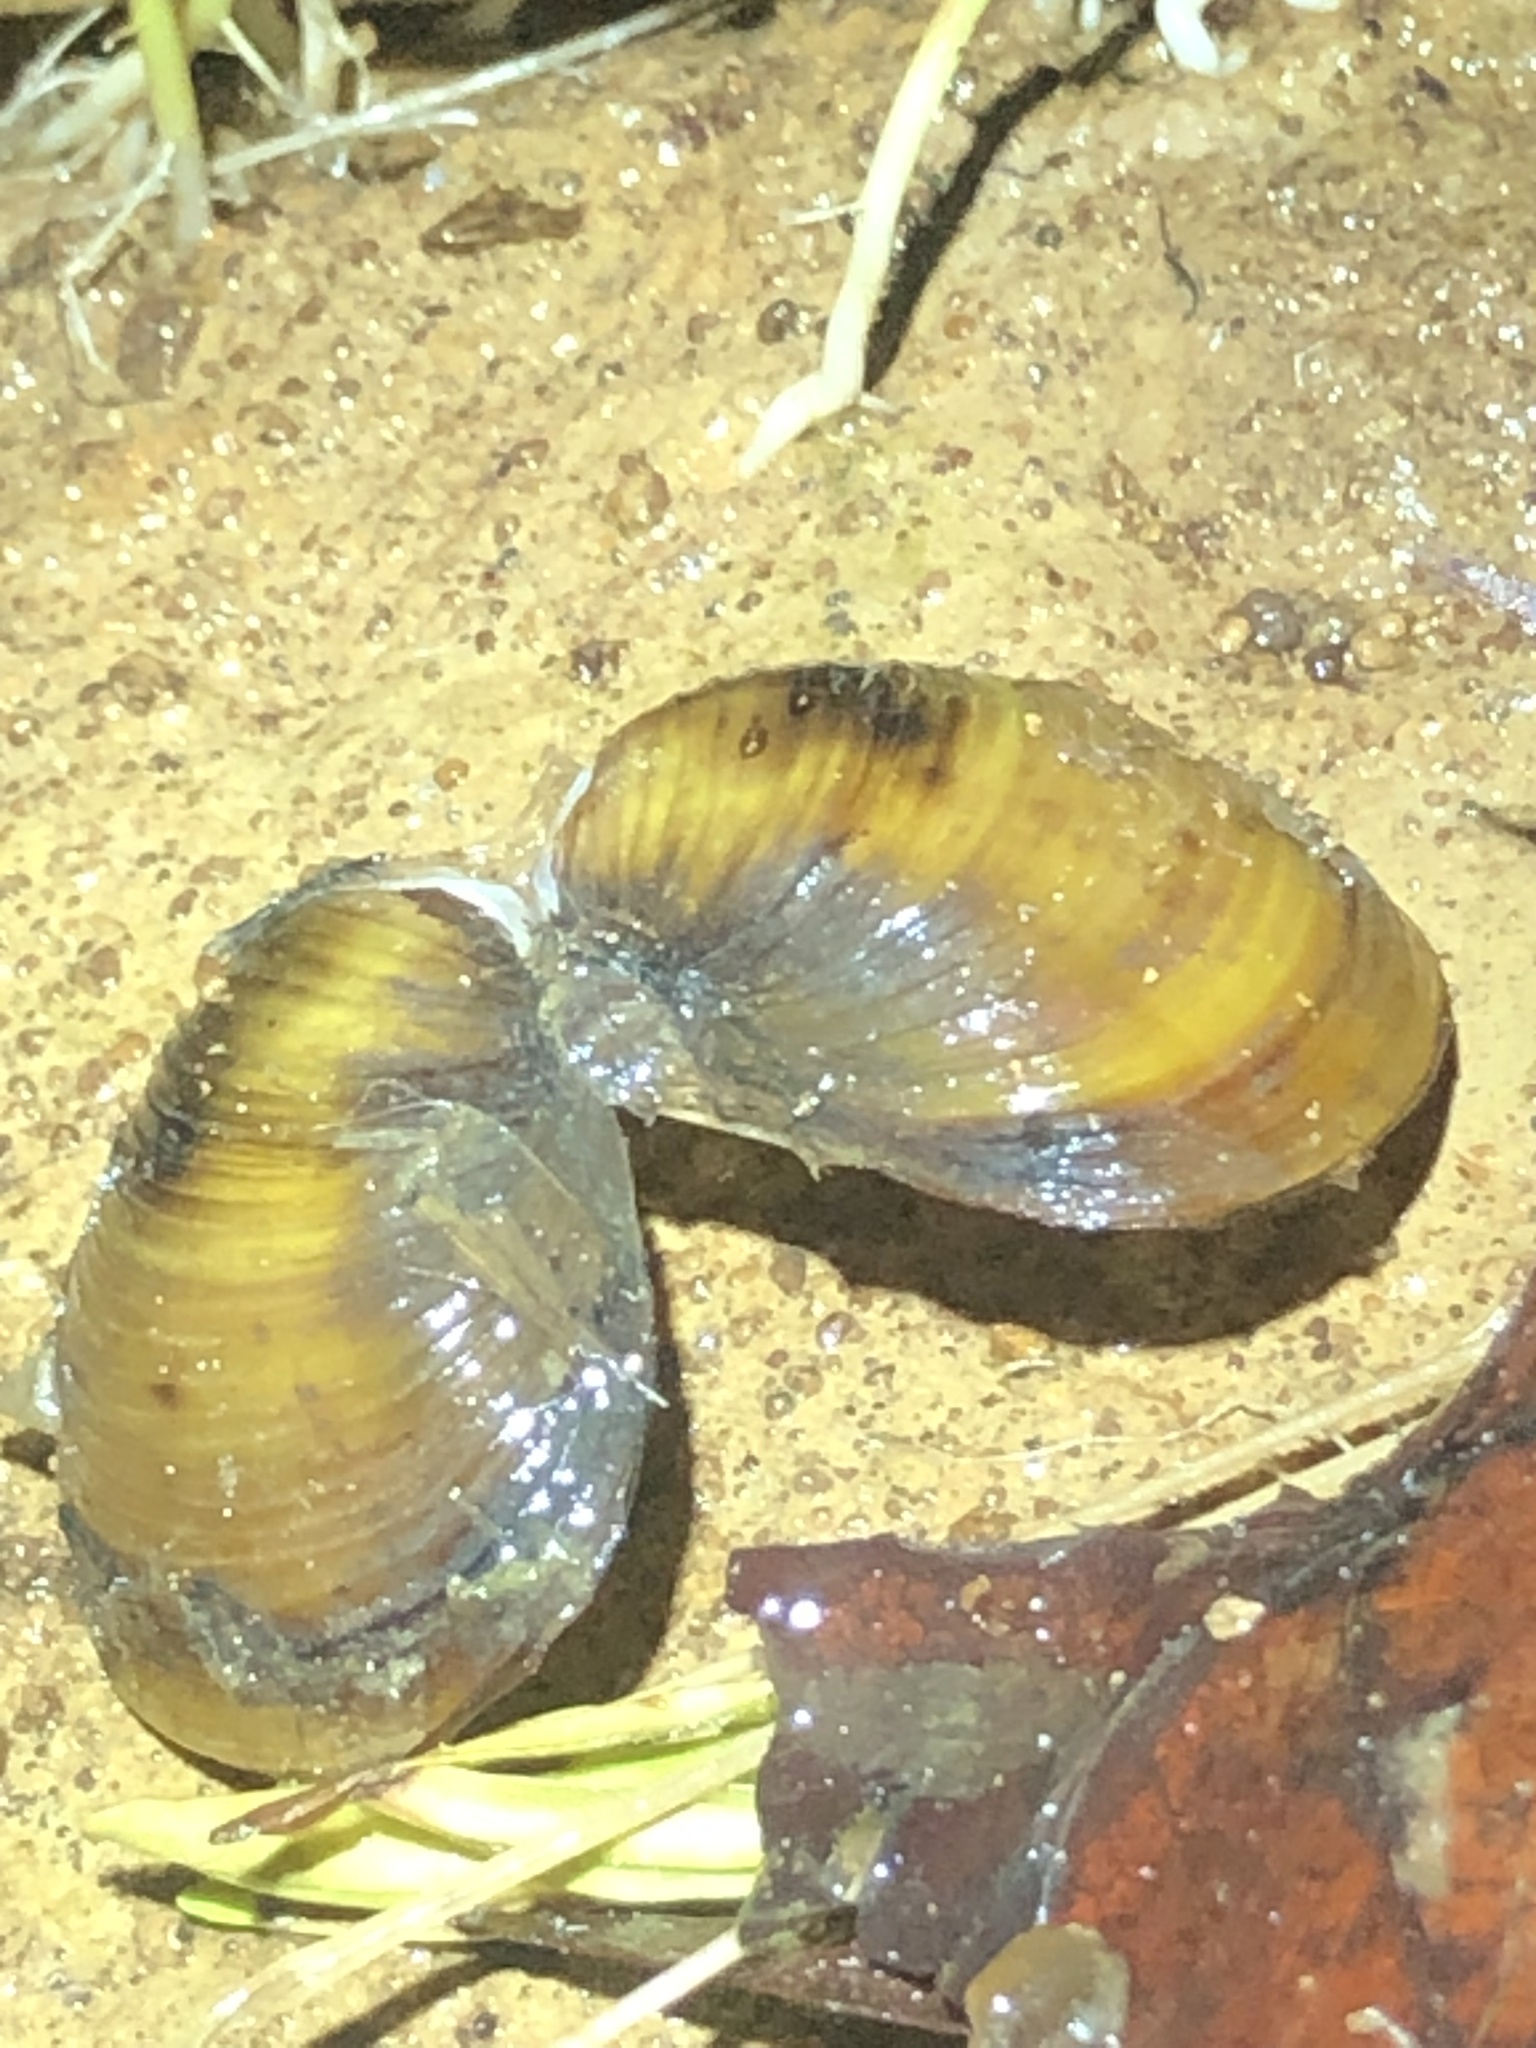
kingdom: Animalia
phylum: Mollusca
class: Bivalvia
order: Venerida
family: Cyrenidae
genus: Corbicula
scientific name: Corbicula fluminea
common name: Asian clam
